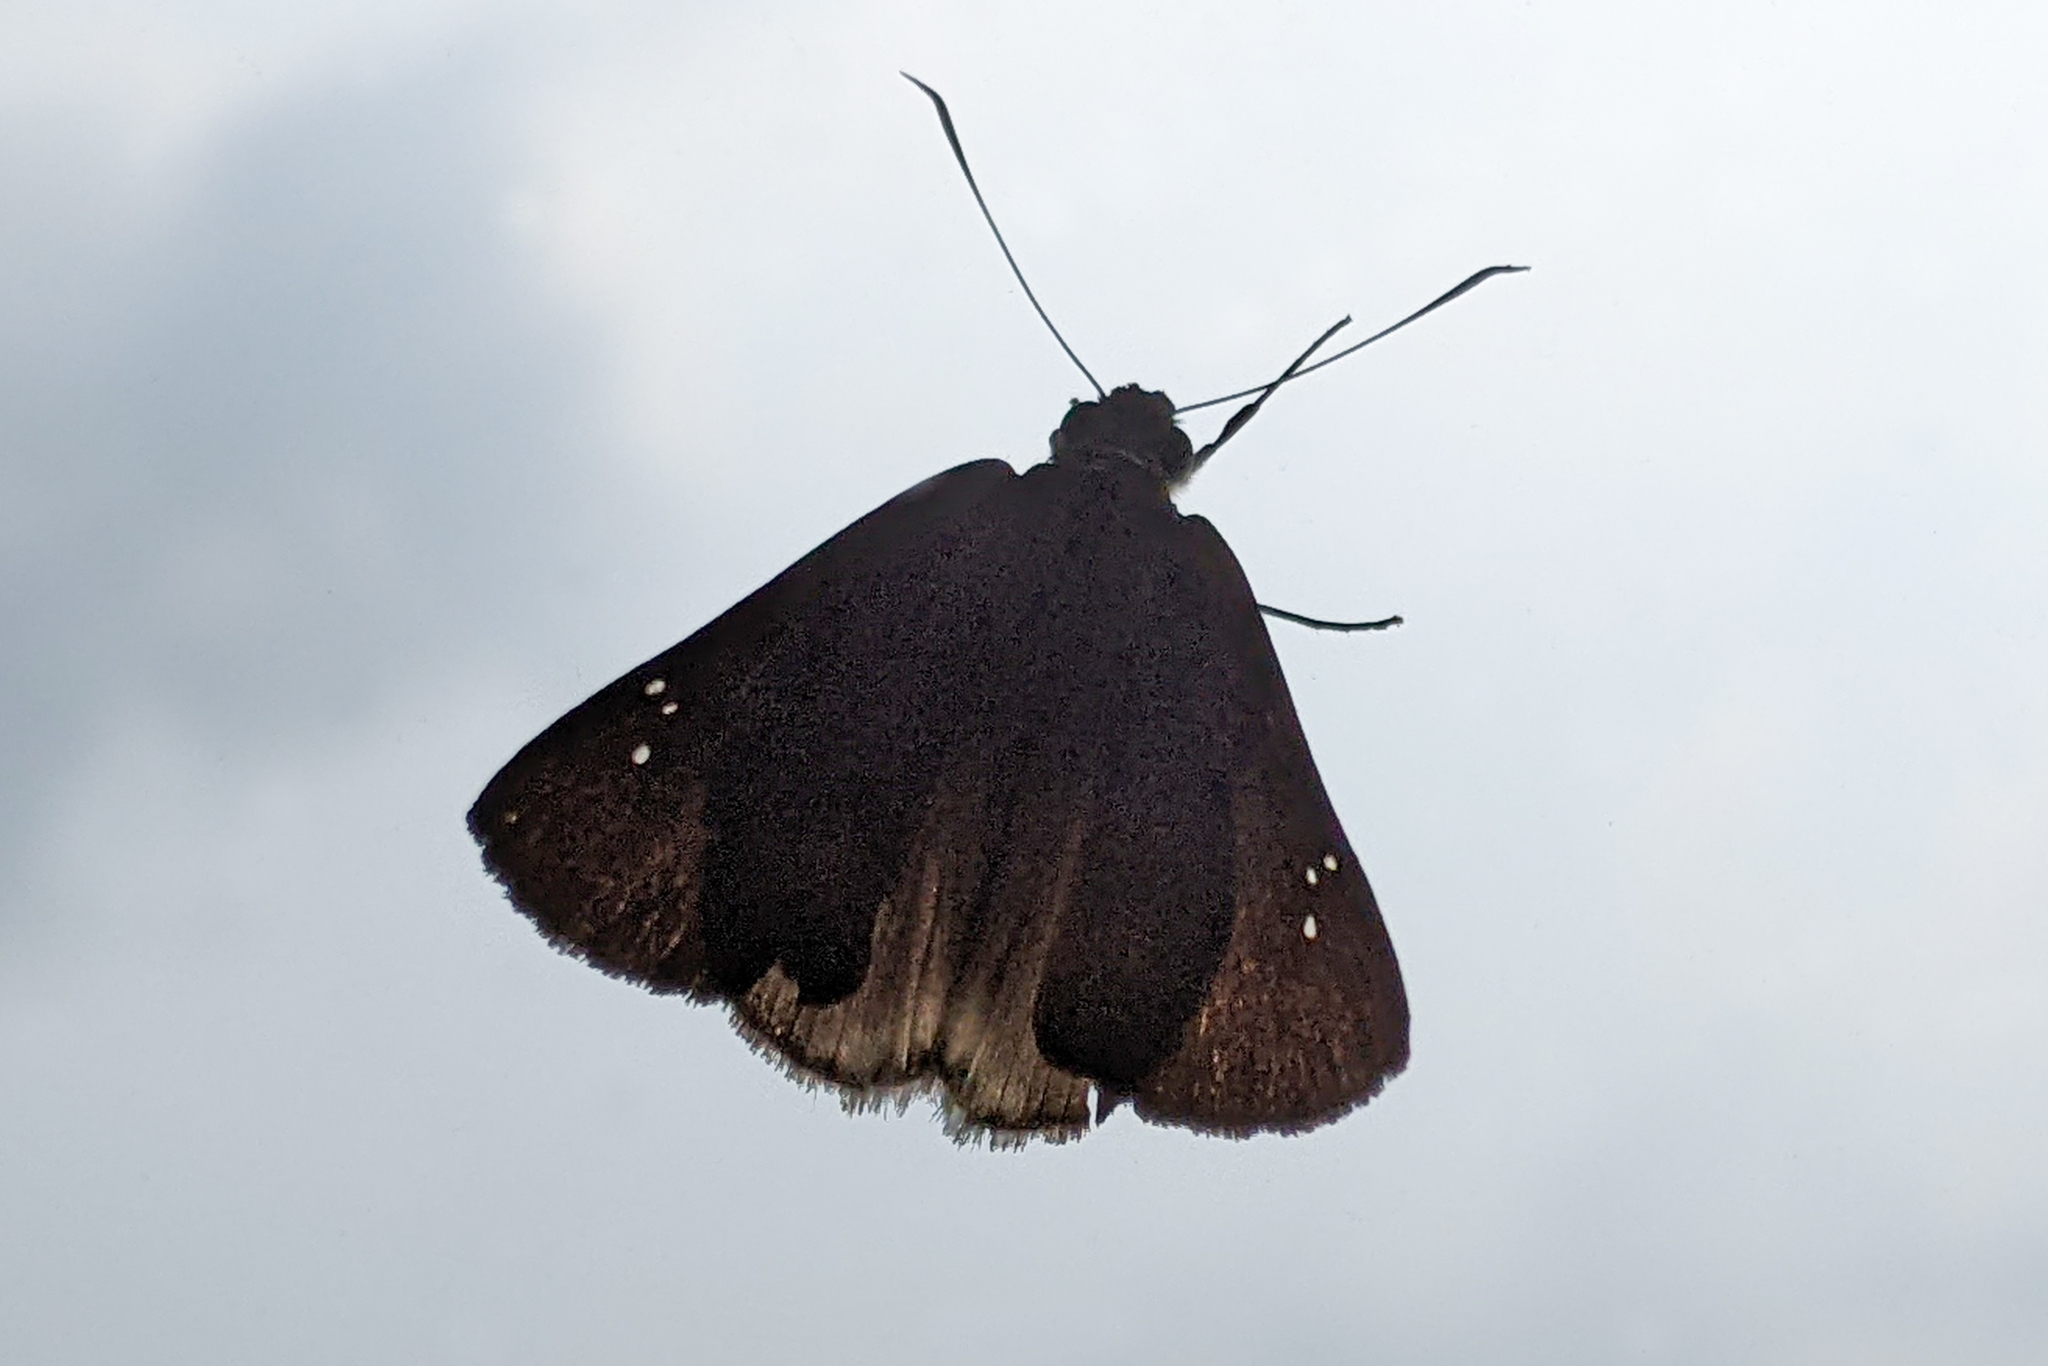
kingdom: Animalia
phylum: Arthropoda
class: Insecta
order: Lepidoptera
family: Hesperiidae
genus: Tagiades
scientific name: Tagiades gana
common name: Suffused snow flat
